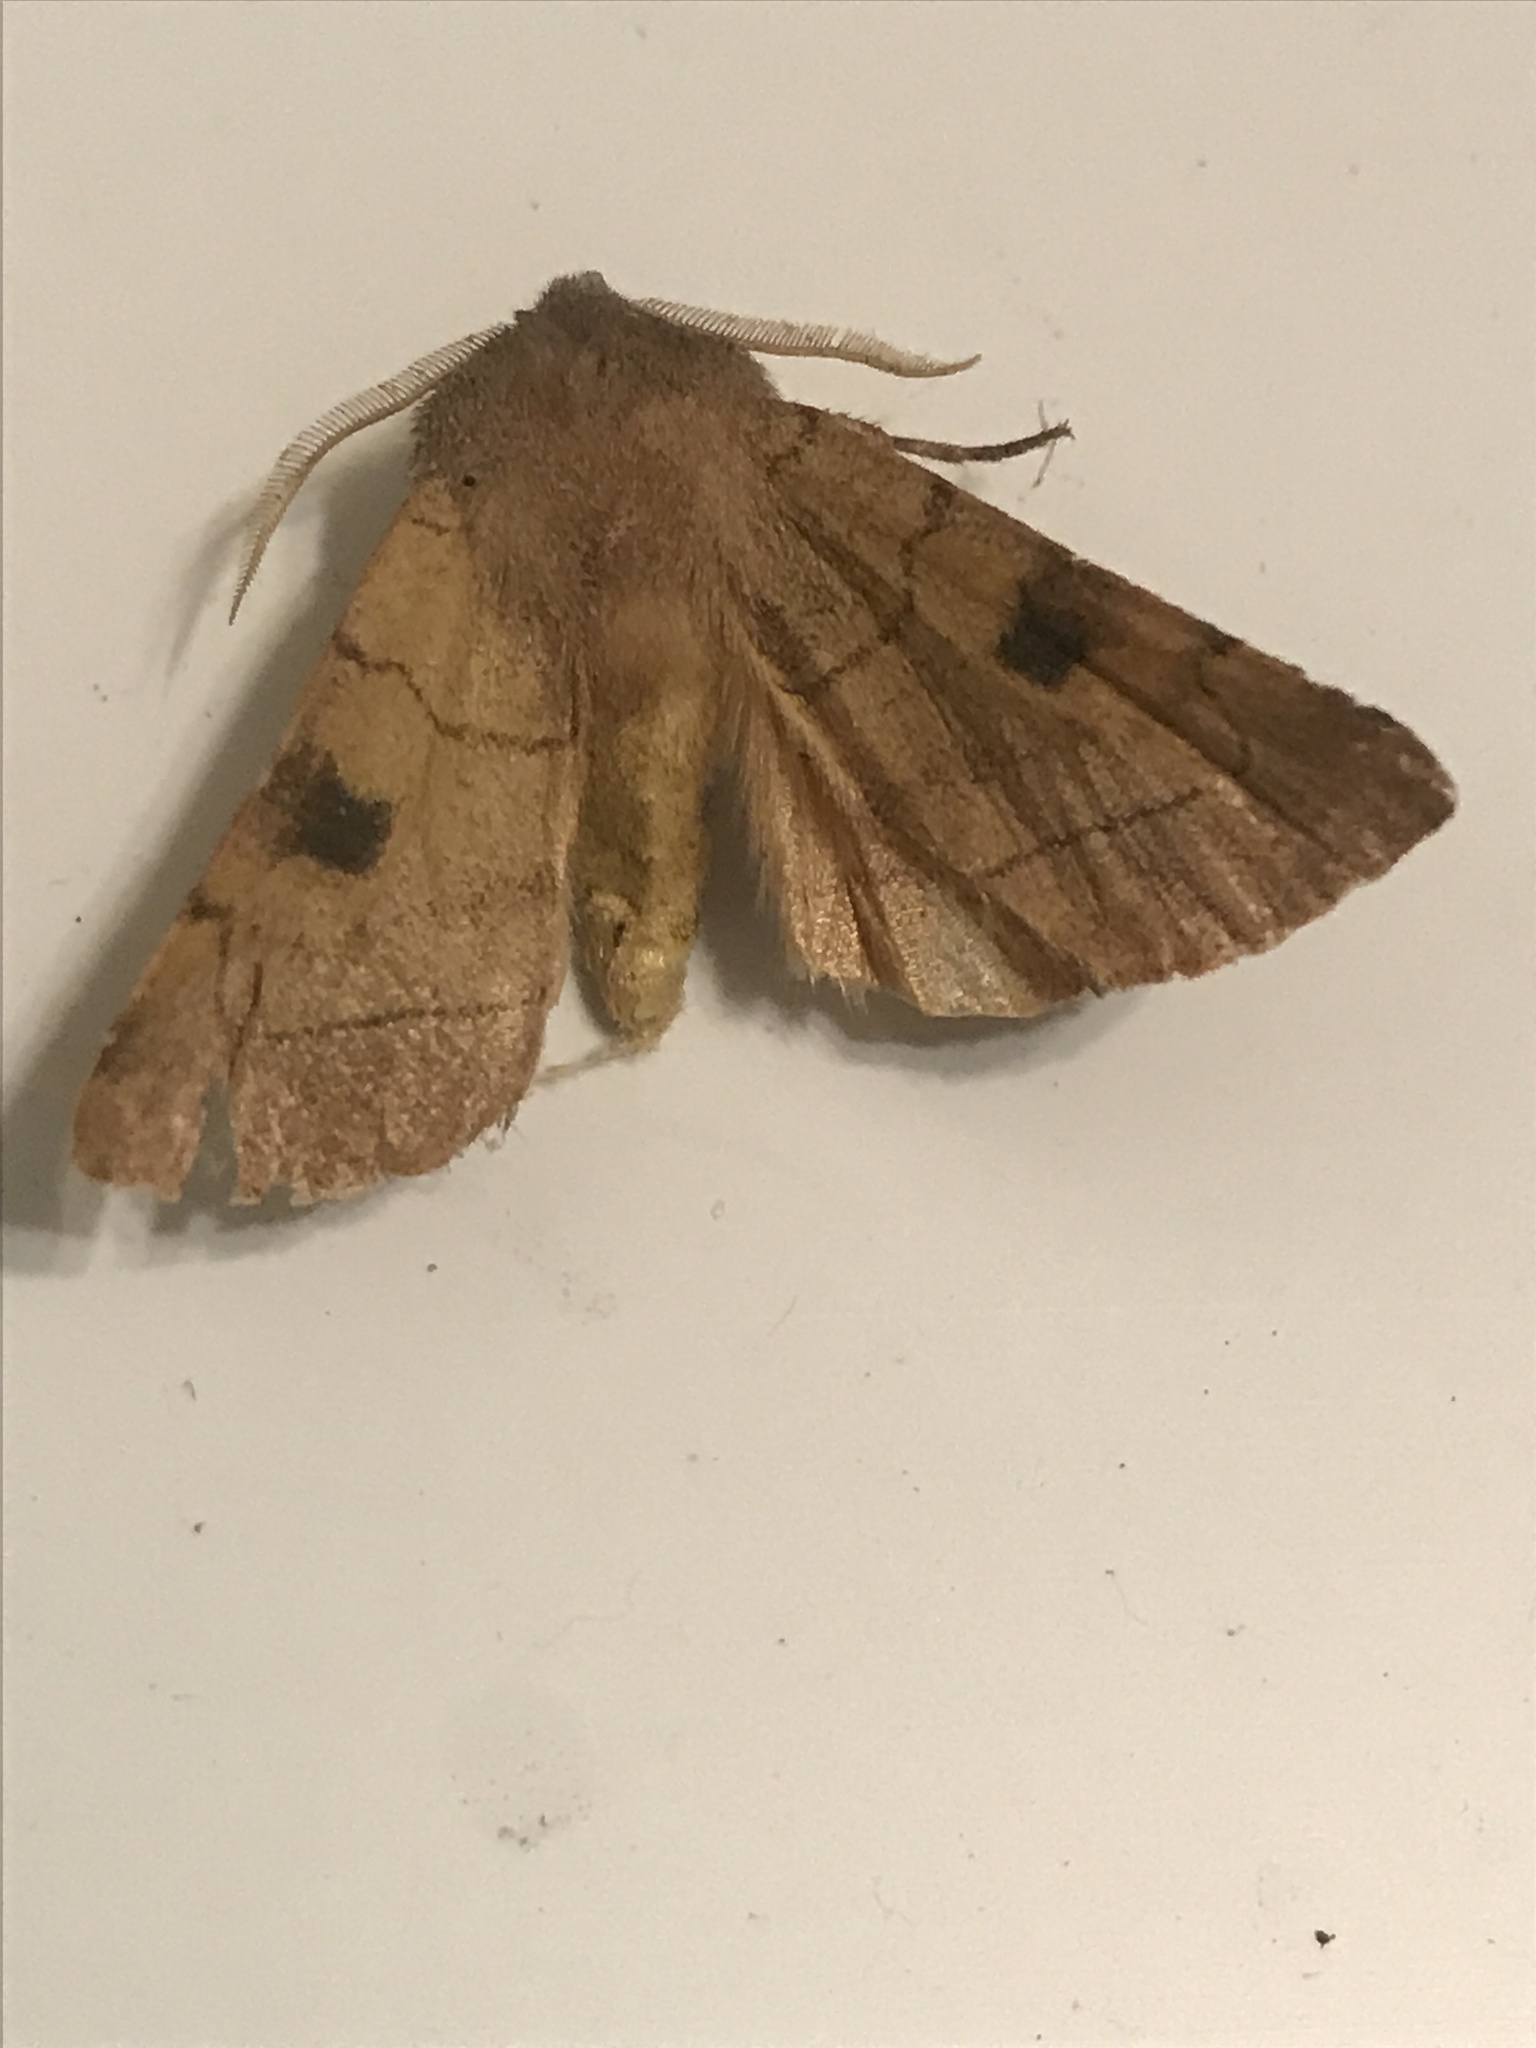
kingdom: Animalia
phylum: Arthropoda
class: Insecta
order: Lepidoptera
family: Noctuidae
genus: Choephora
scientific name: Choephora fungorum
